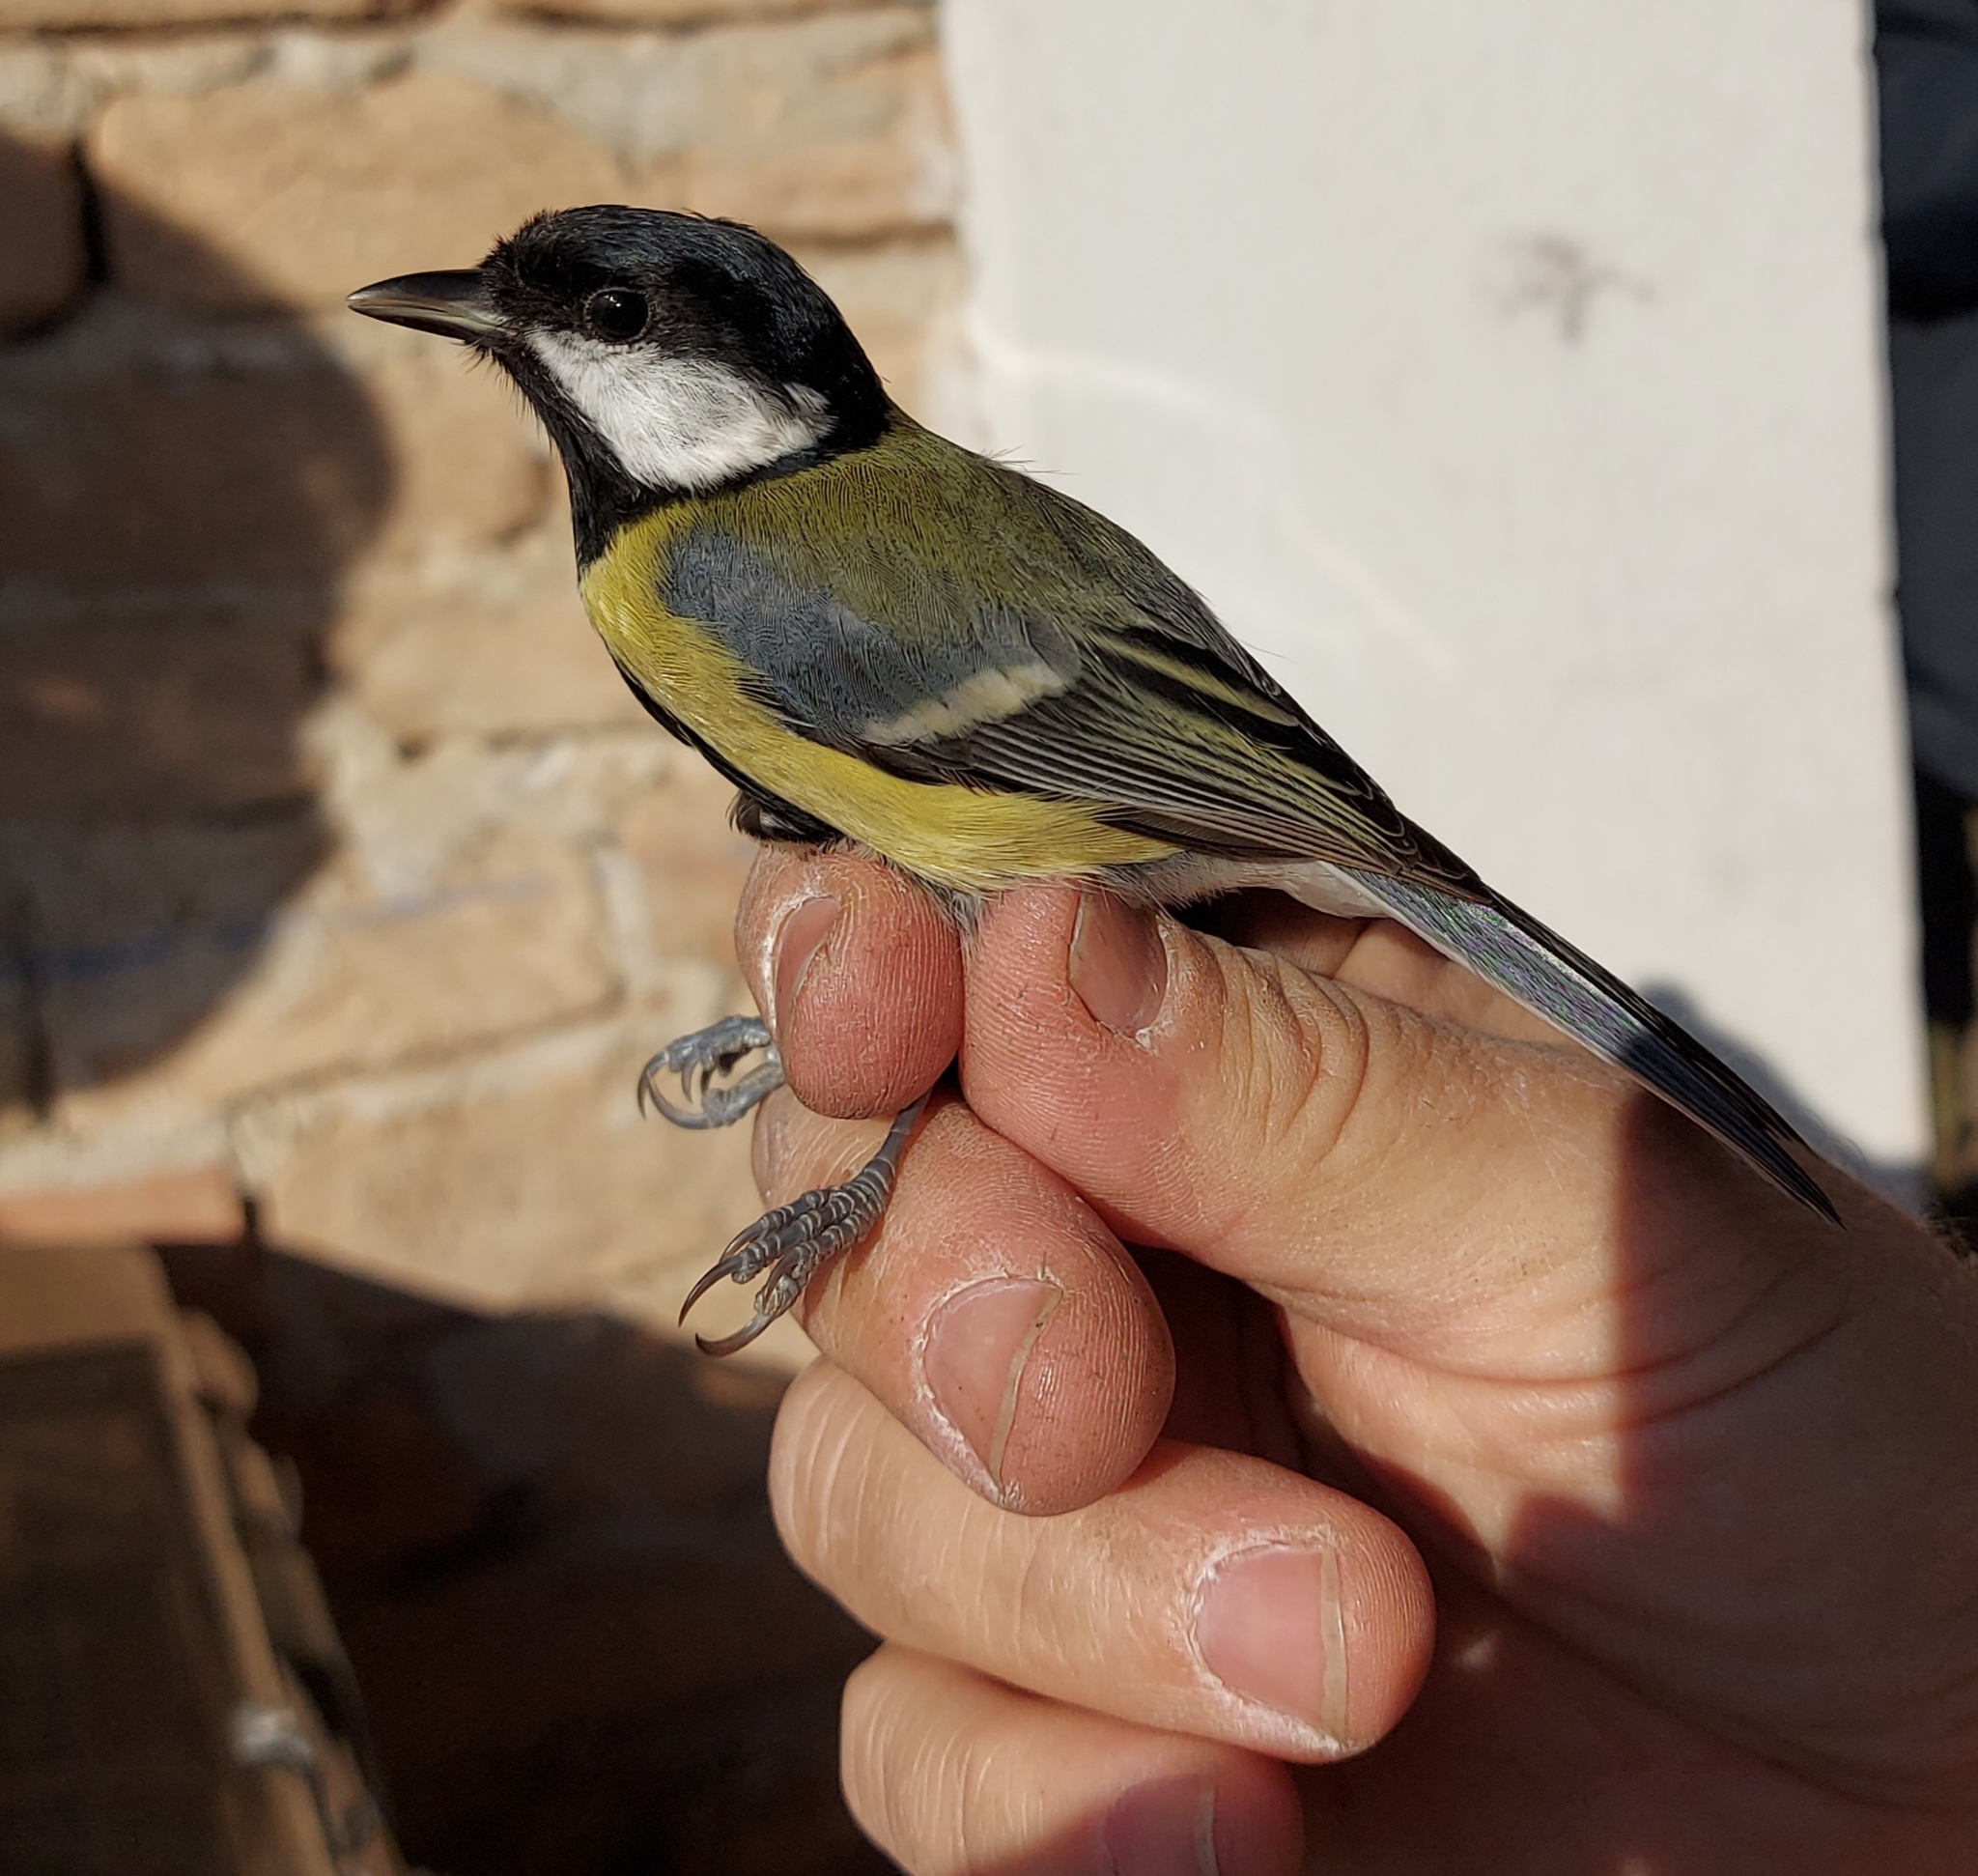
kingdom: Animalia
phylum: Chordata
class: Aves
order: Passeriformes
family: Paridae
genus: Parus
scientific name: Parus major
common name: Great tit
